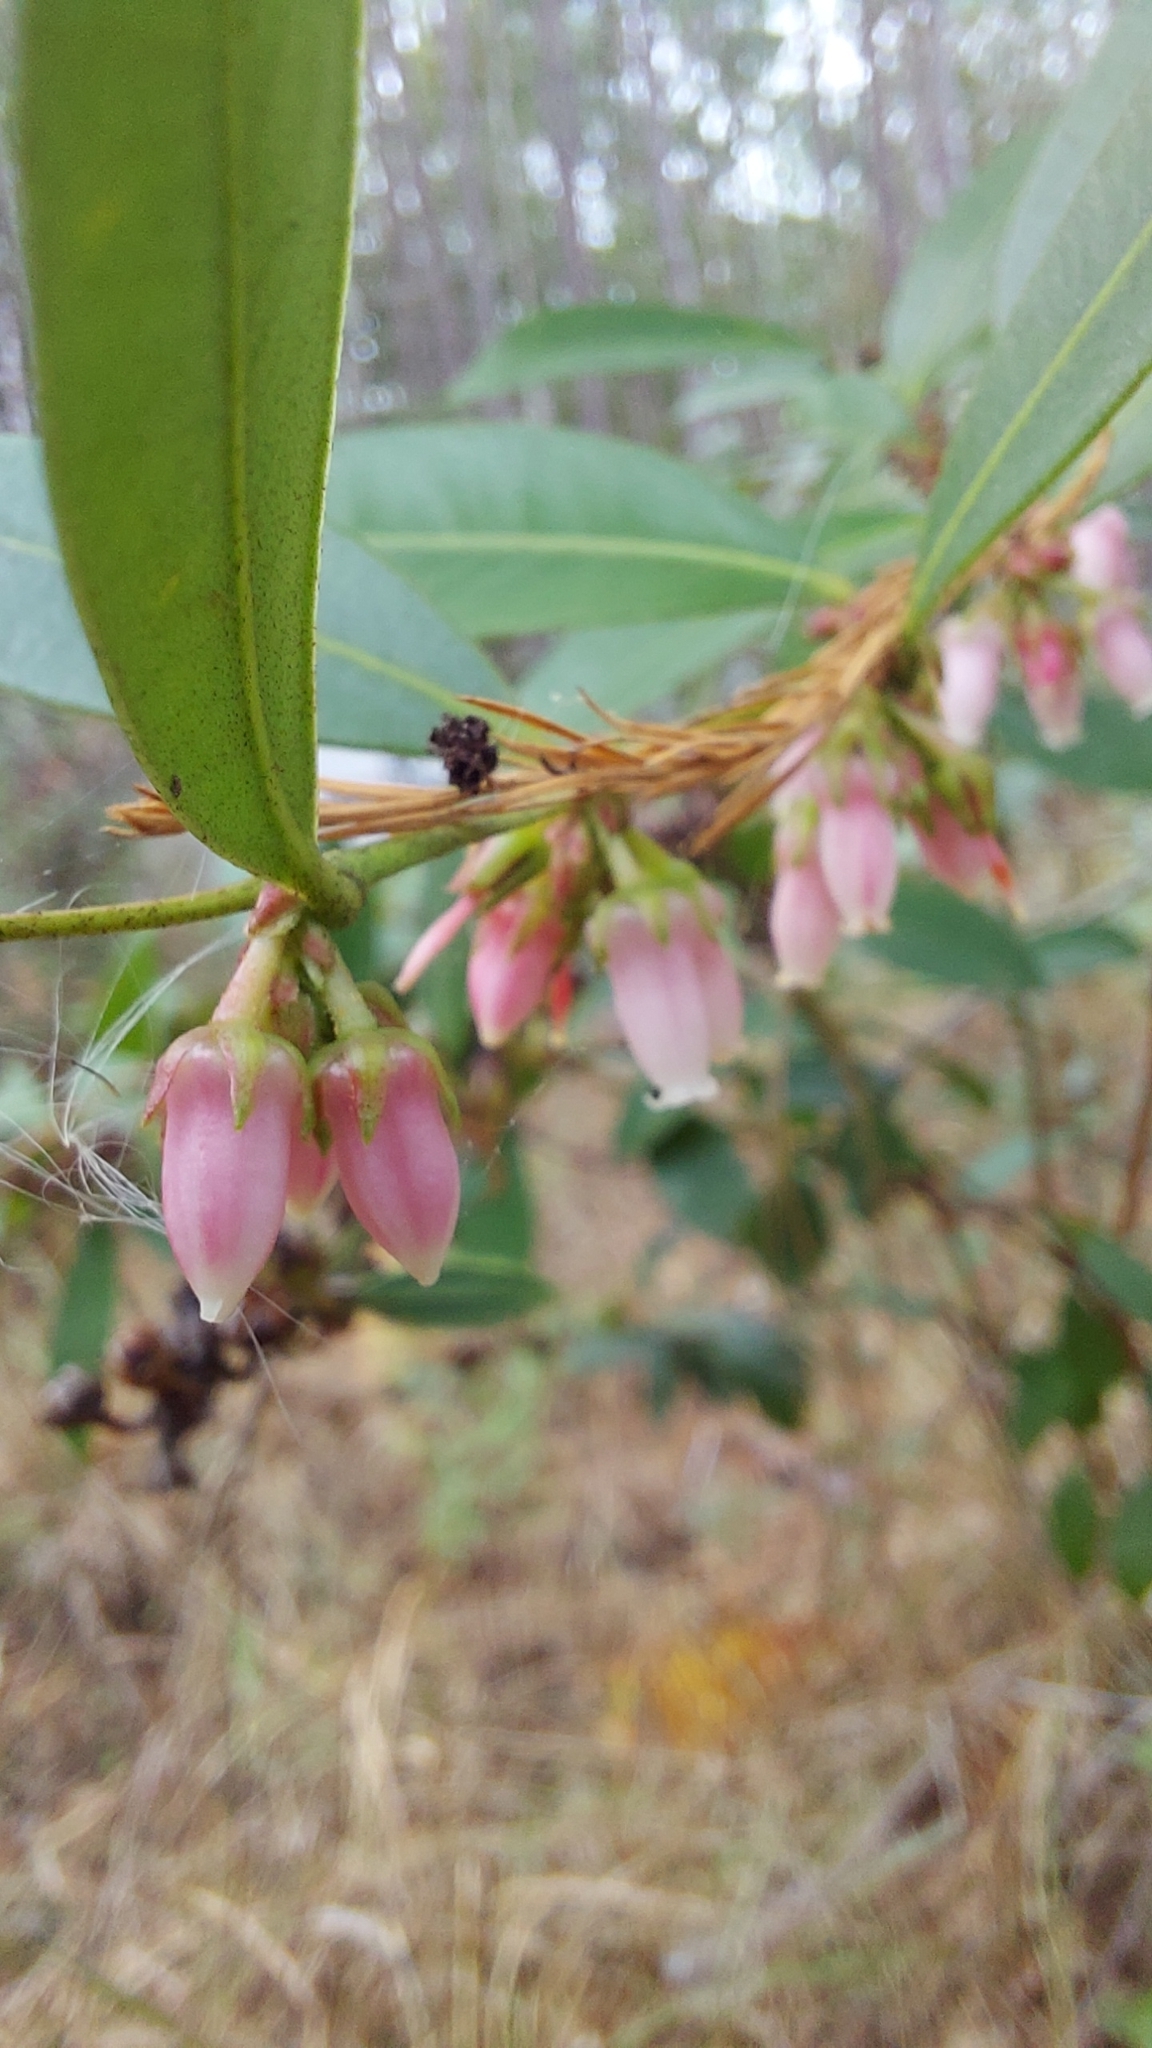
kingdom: Plantae
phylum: Tracheophyta
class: Magnoliopsida
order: Ericales
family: Ericaceae
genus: Lyonia
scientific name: Lyonia lucida
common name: Fetterbush
